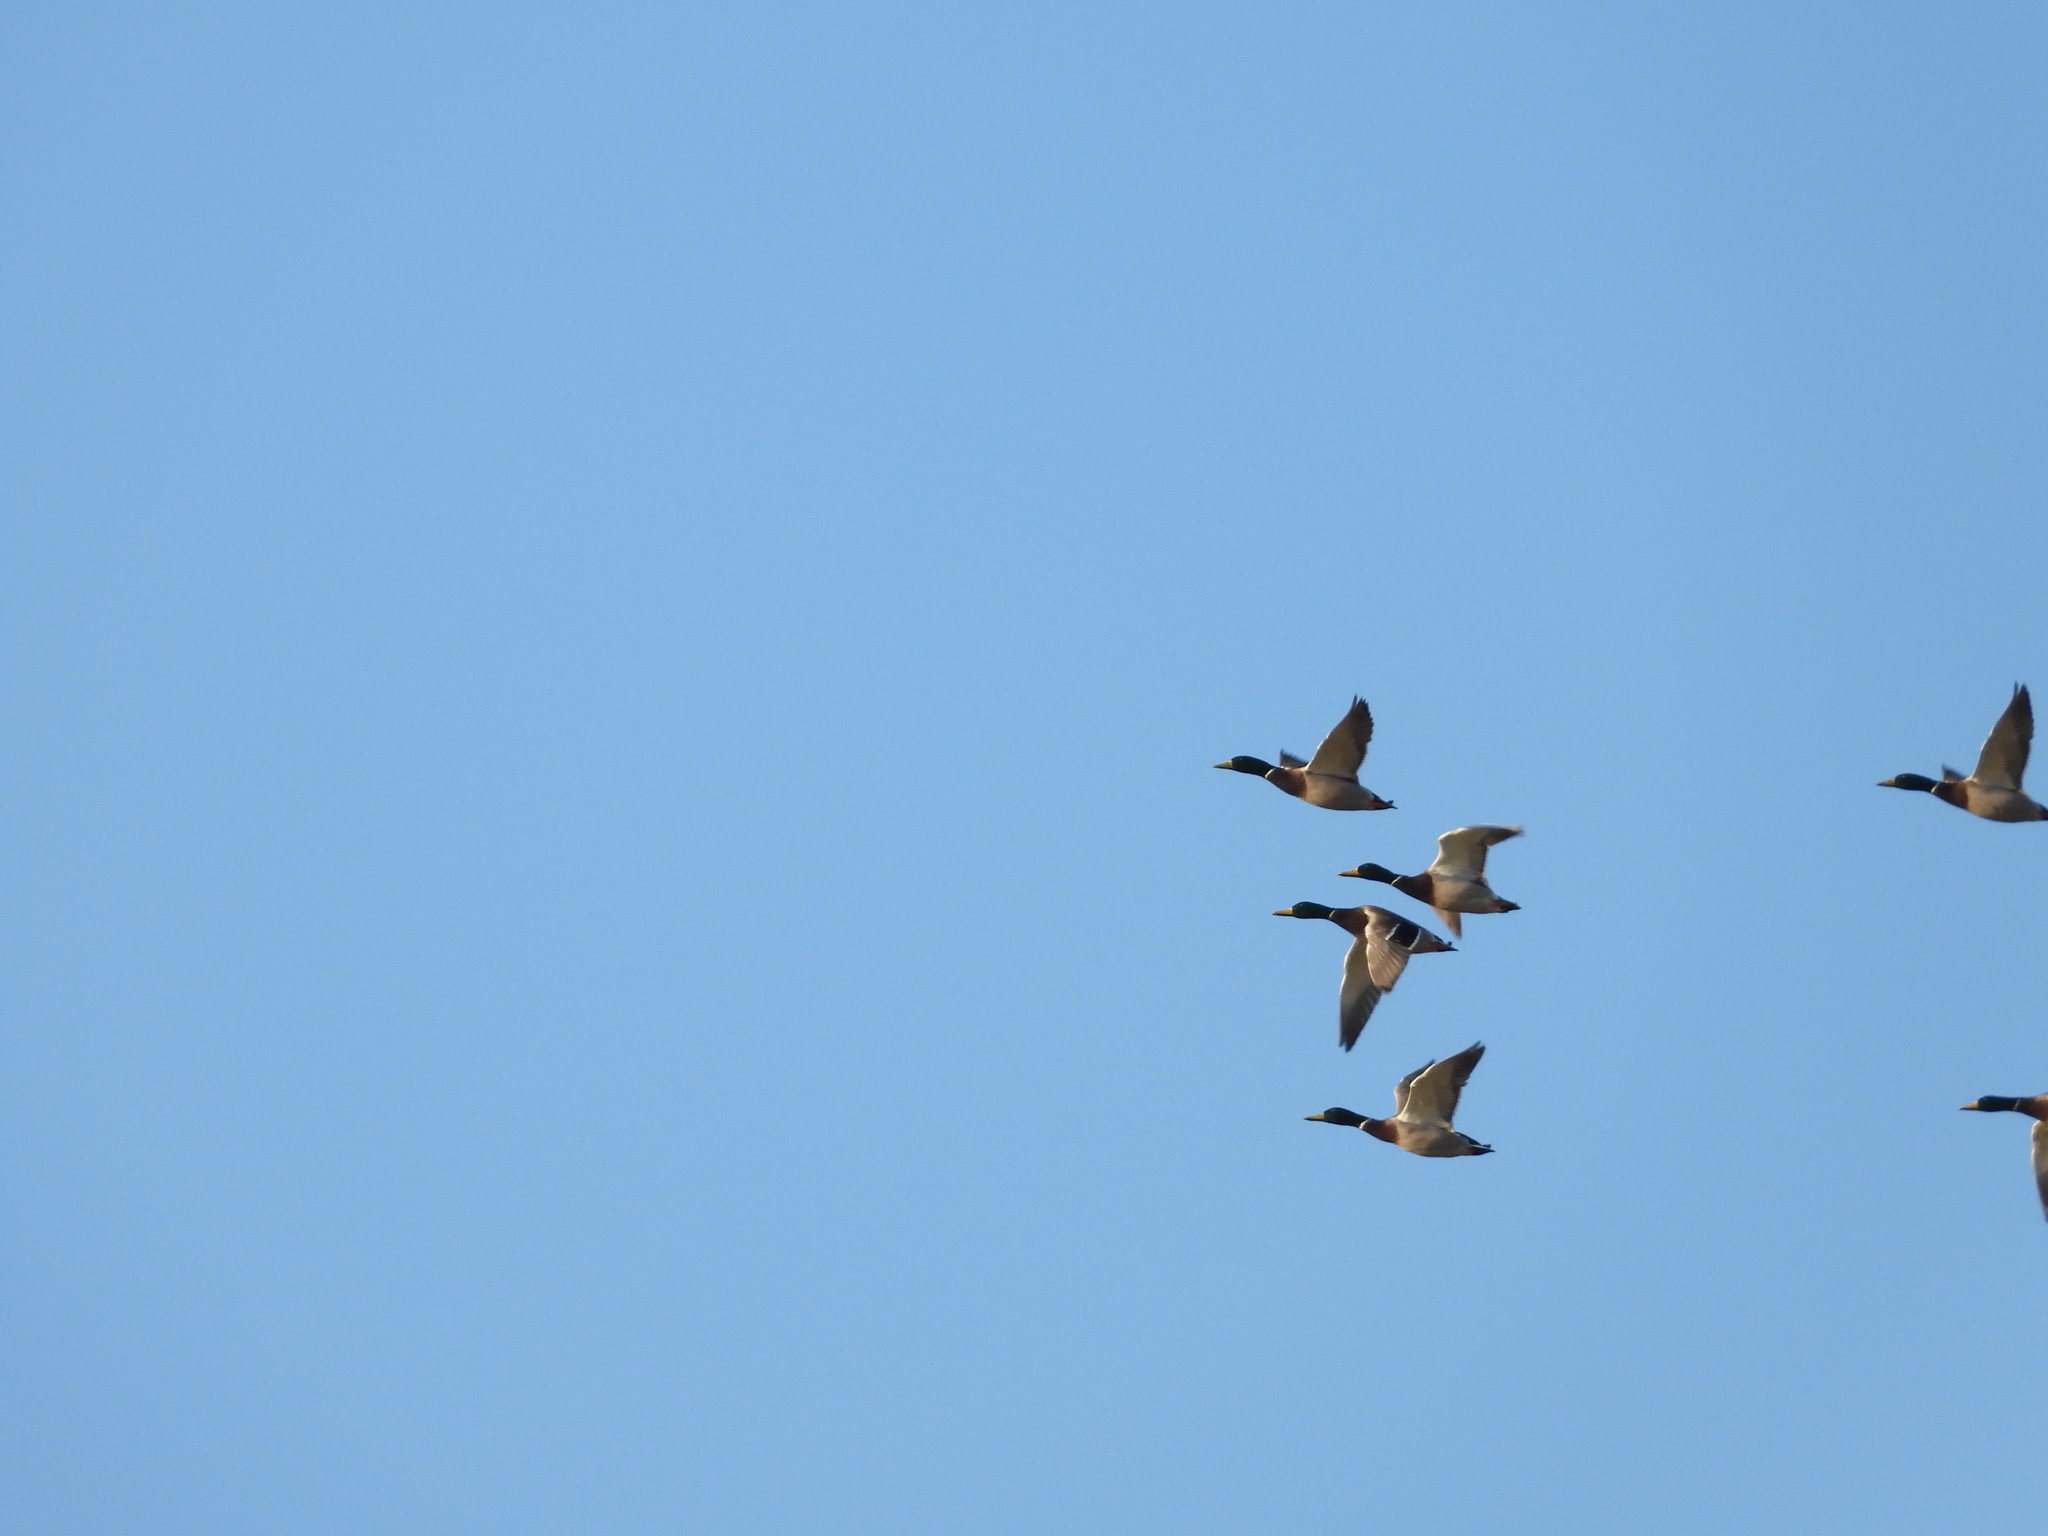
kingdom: Animalia
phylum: Chordata
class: Aves
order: Anseriformes
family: Anatidae
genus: Anas
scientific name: Anas platyrhynchos
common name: Mallard
